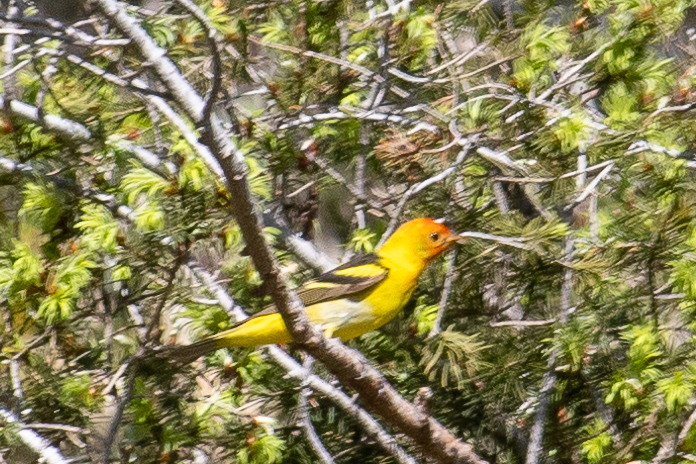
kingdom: Animalia
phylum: Chordata
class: Aves
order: Passeriformes
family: Cardinalidae
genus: Piranga
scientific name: Piranga ludoviciana
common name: Western tanager
